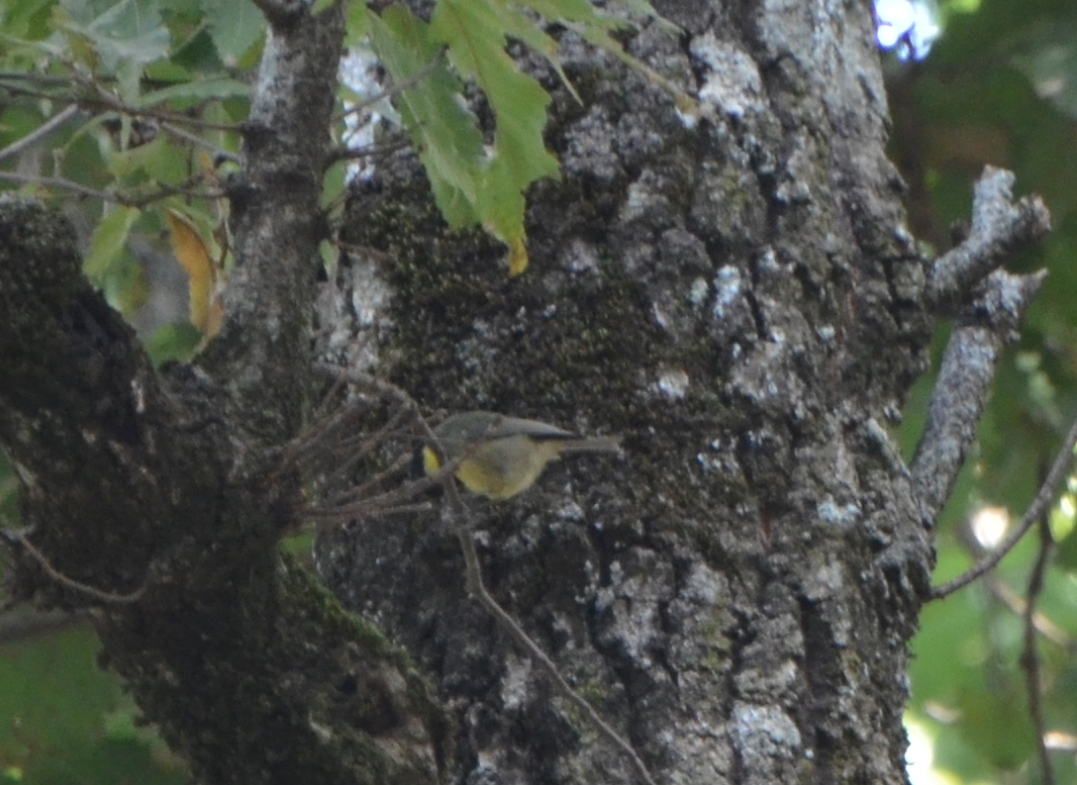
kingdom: Animalia
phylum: Chordata
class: Aves
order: Passeriformes
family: Paridae
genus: Periparus
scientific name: Periparus ater
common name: Coal tit
